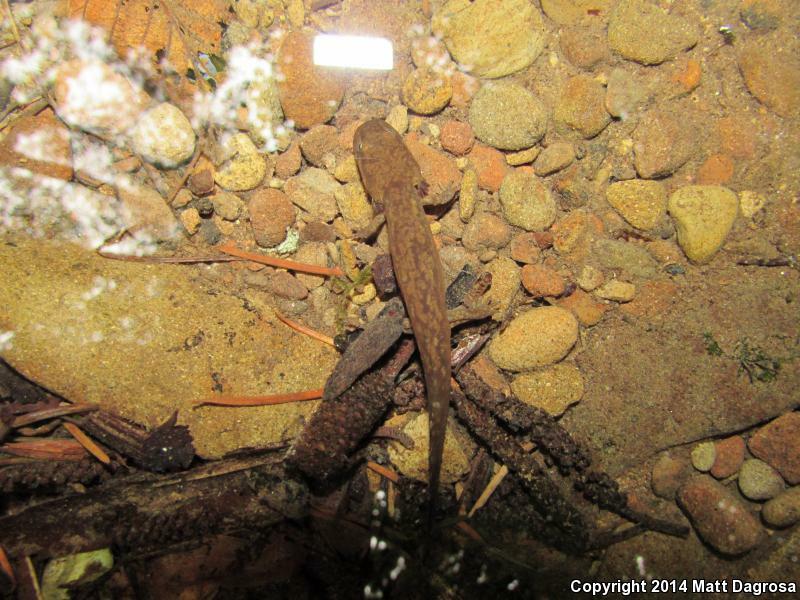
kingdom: Animalia
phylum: Chordata
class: Amphibia
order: Caudata
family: Ambystomatidae
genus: Dicamptodon
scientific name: Dicamptodon tenebrosus
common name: Coastal giant salamander
